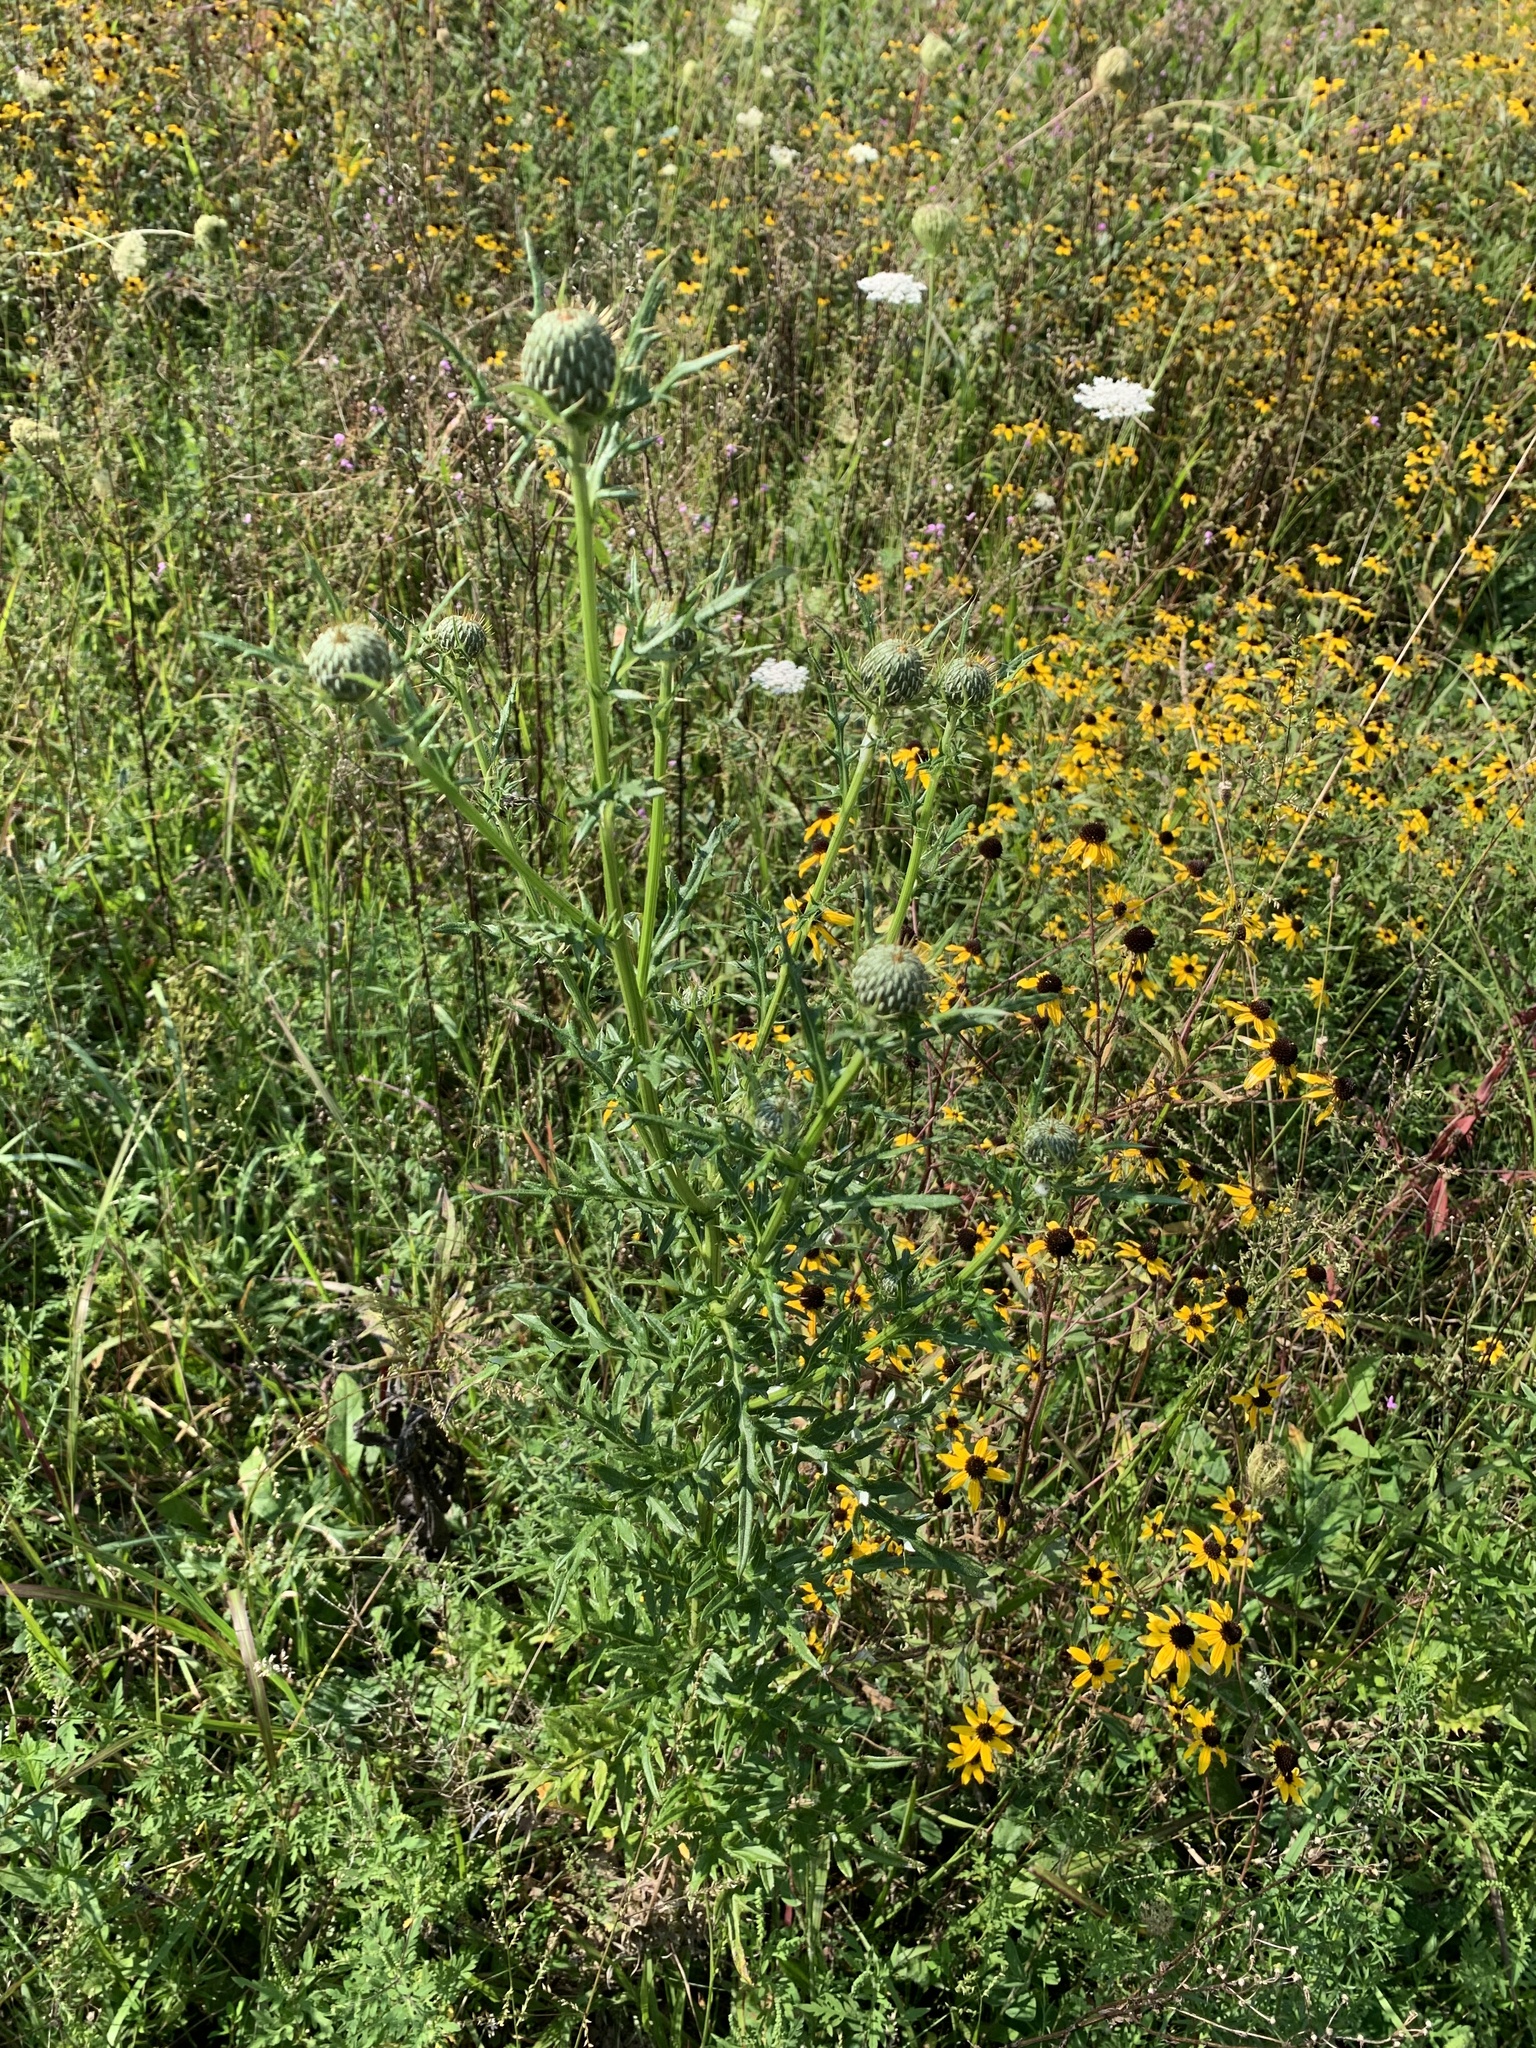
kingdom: Plantae
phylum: Tracheophyta
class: Magnoliopsida
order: Asterales
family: Asteraceae
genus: Cirsium
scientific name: Cirsium discolor
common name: Field thistle
